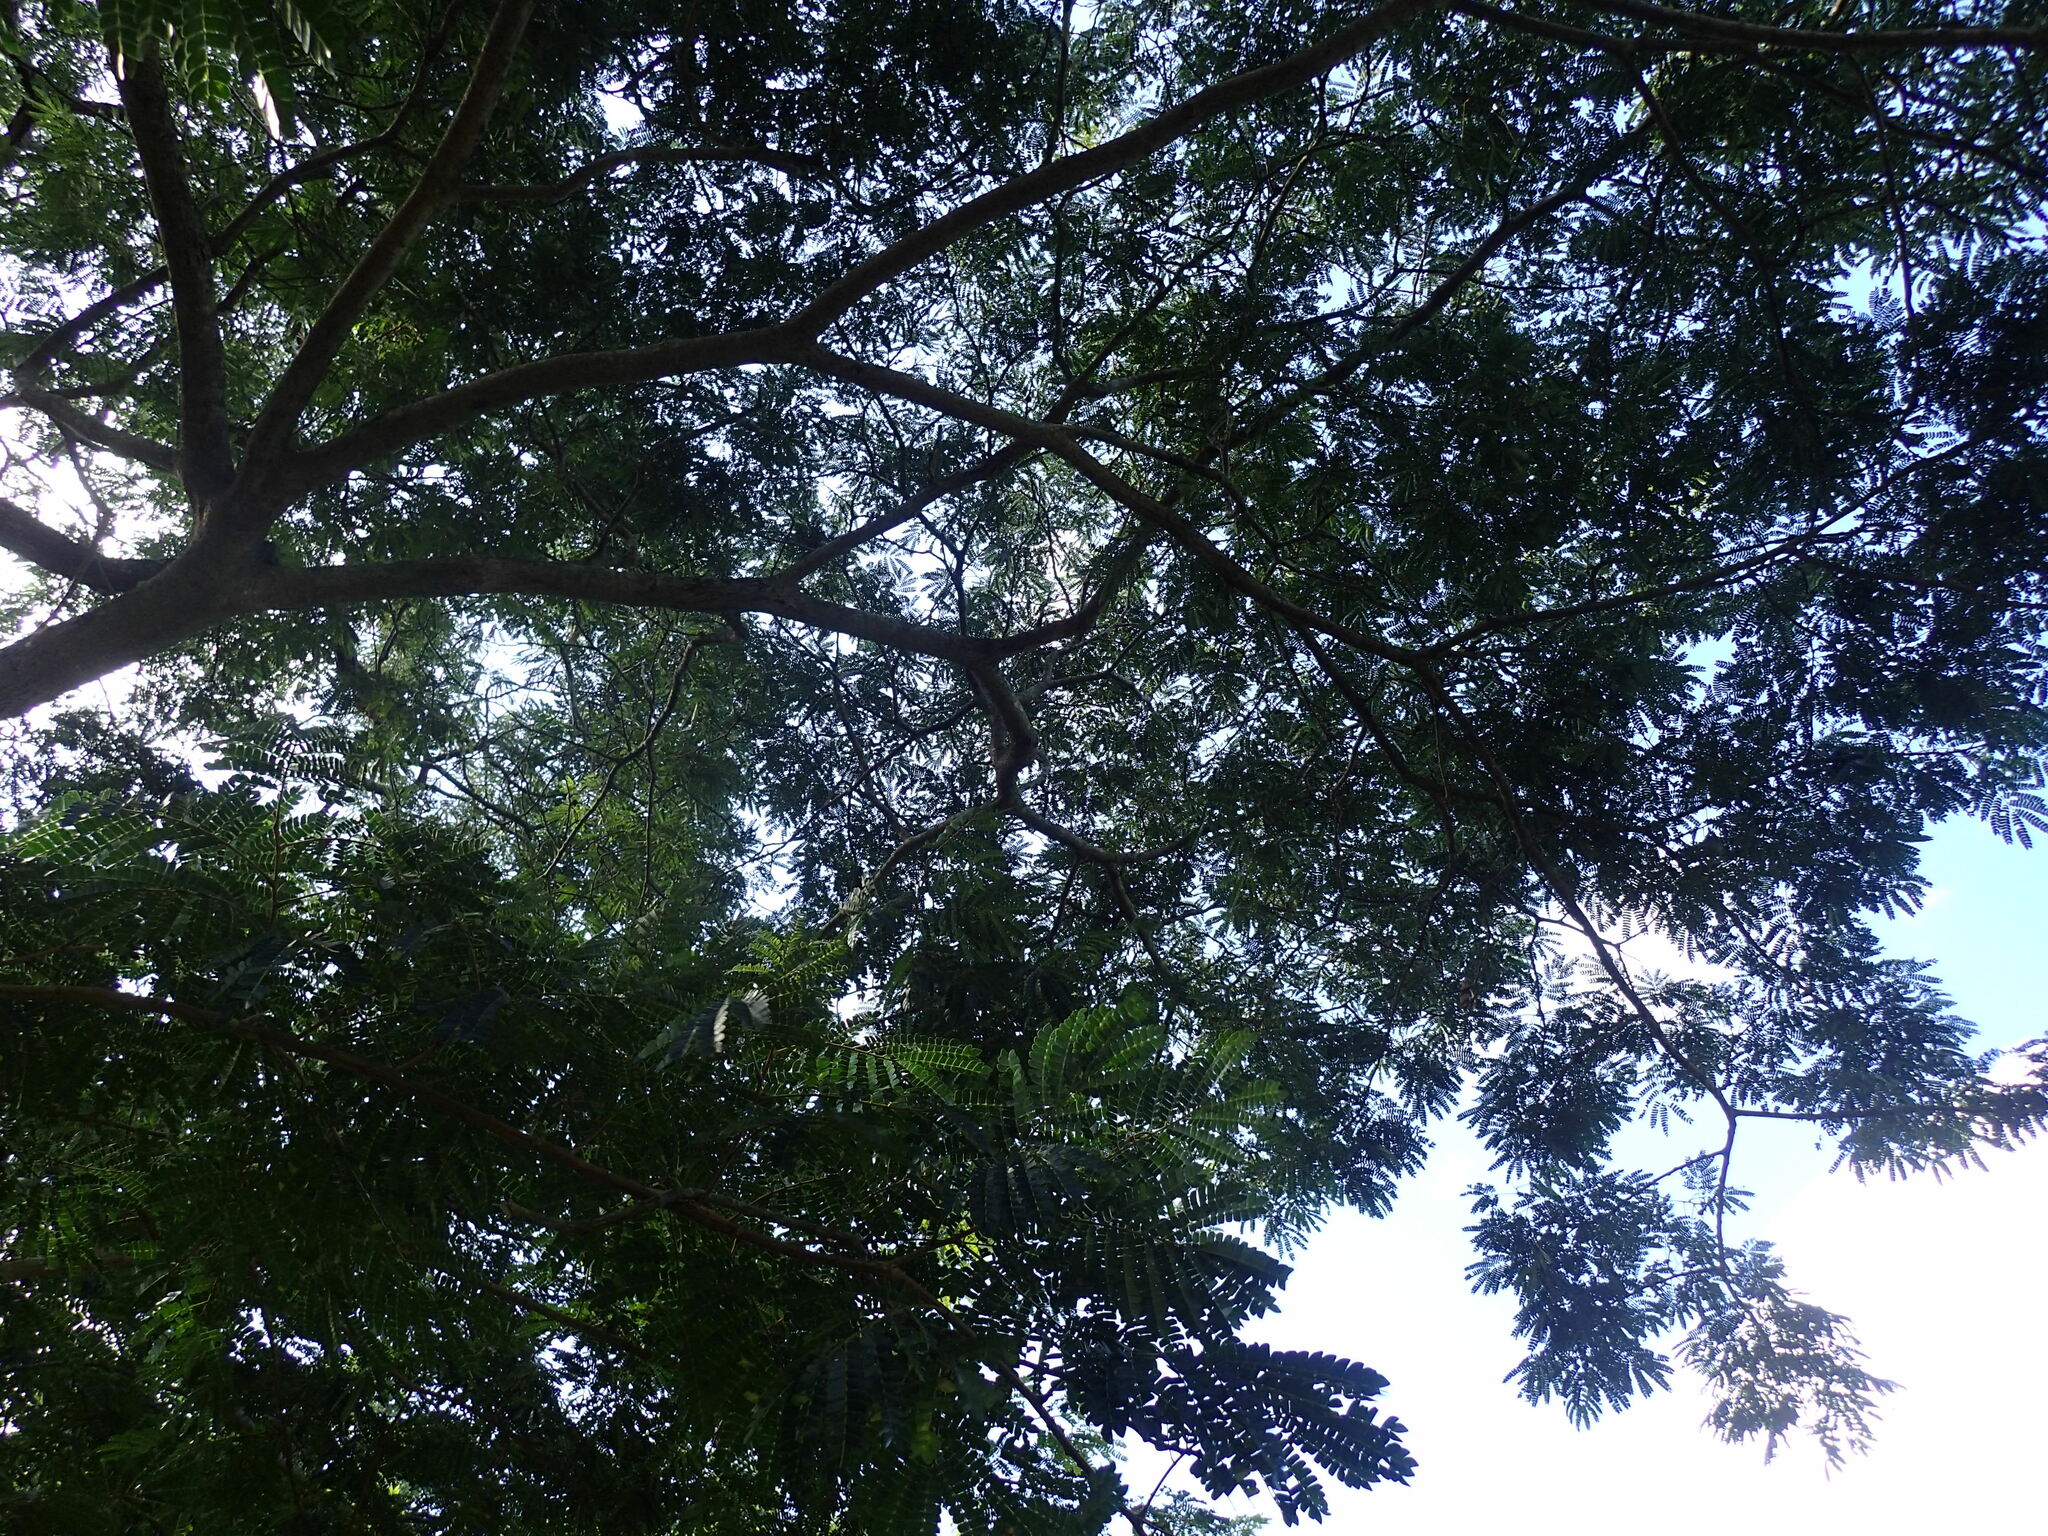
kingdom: Plantae
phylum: Tracheophyta
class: Magnoliopsida
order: Fabales
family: Fabaceae
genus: Albizia
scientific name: Albizia adianthifolia
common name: West african albizia
